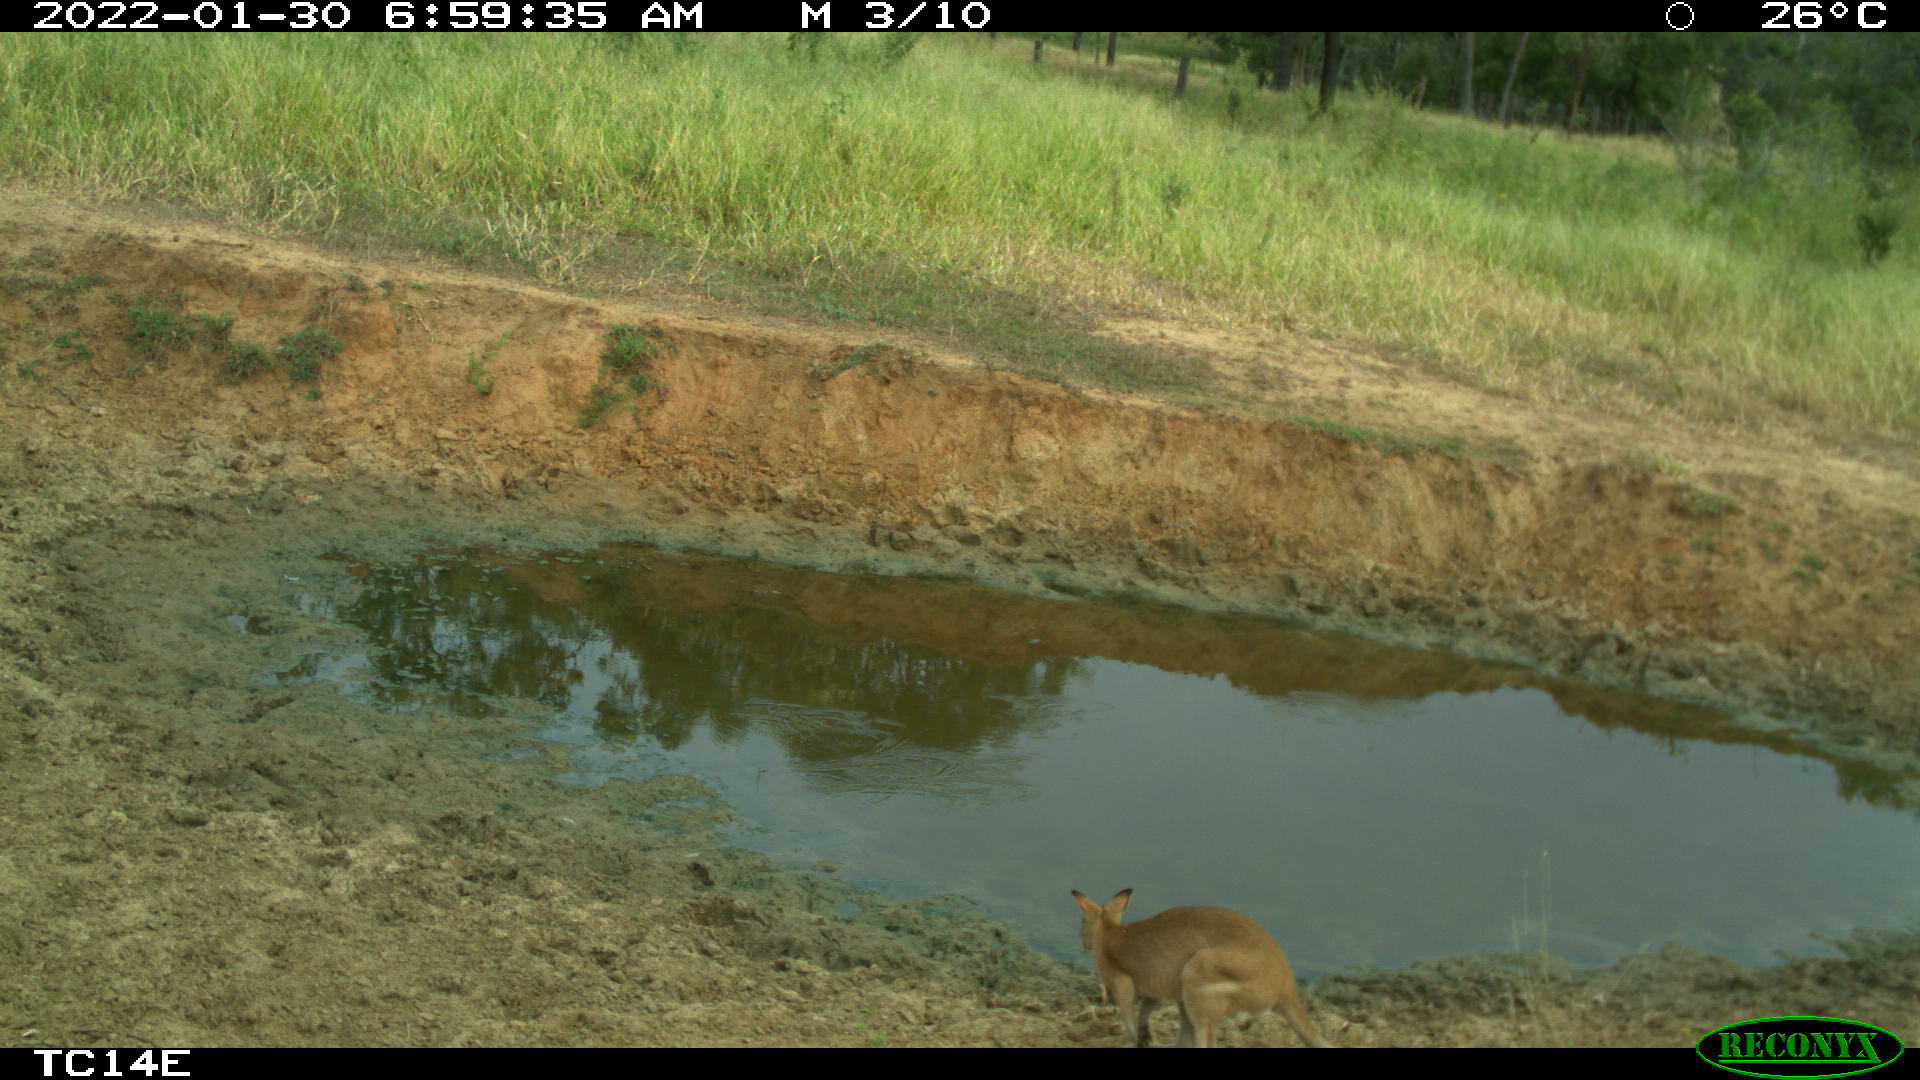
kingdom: Animalia
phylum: Chordata
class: Mammalia
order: Diprotodontia
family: Macropodidae
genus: Macropus
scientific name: Macropus agilis
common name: Agile wallaby
